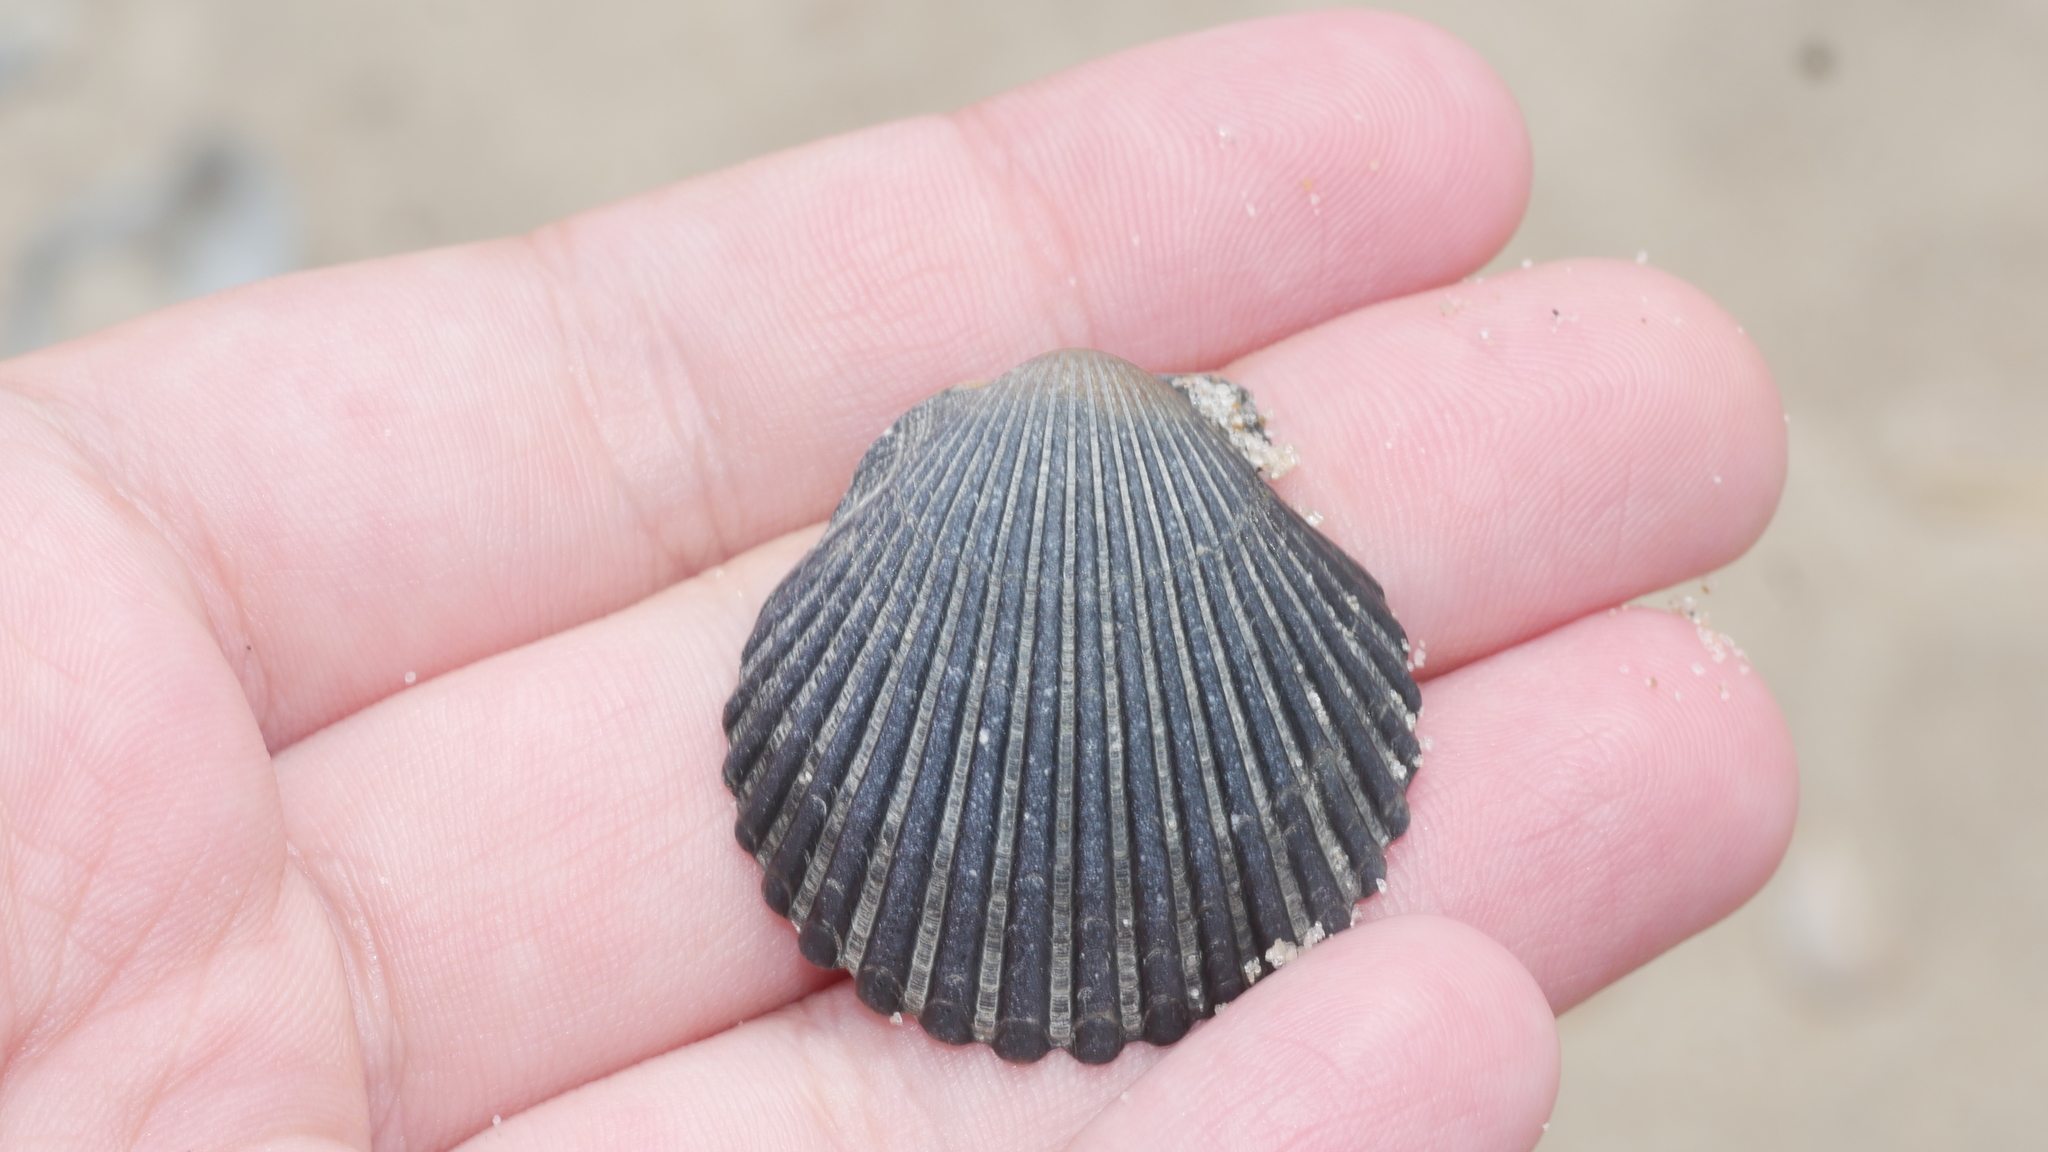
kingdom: Animalia
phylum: Mollusca
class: Bivalvia
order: Pectinida
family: Pectinidae
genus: Argopecten
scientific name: Argopecten irradians
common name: Atlantic bay scallop
